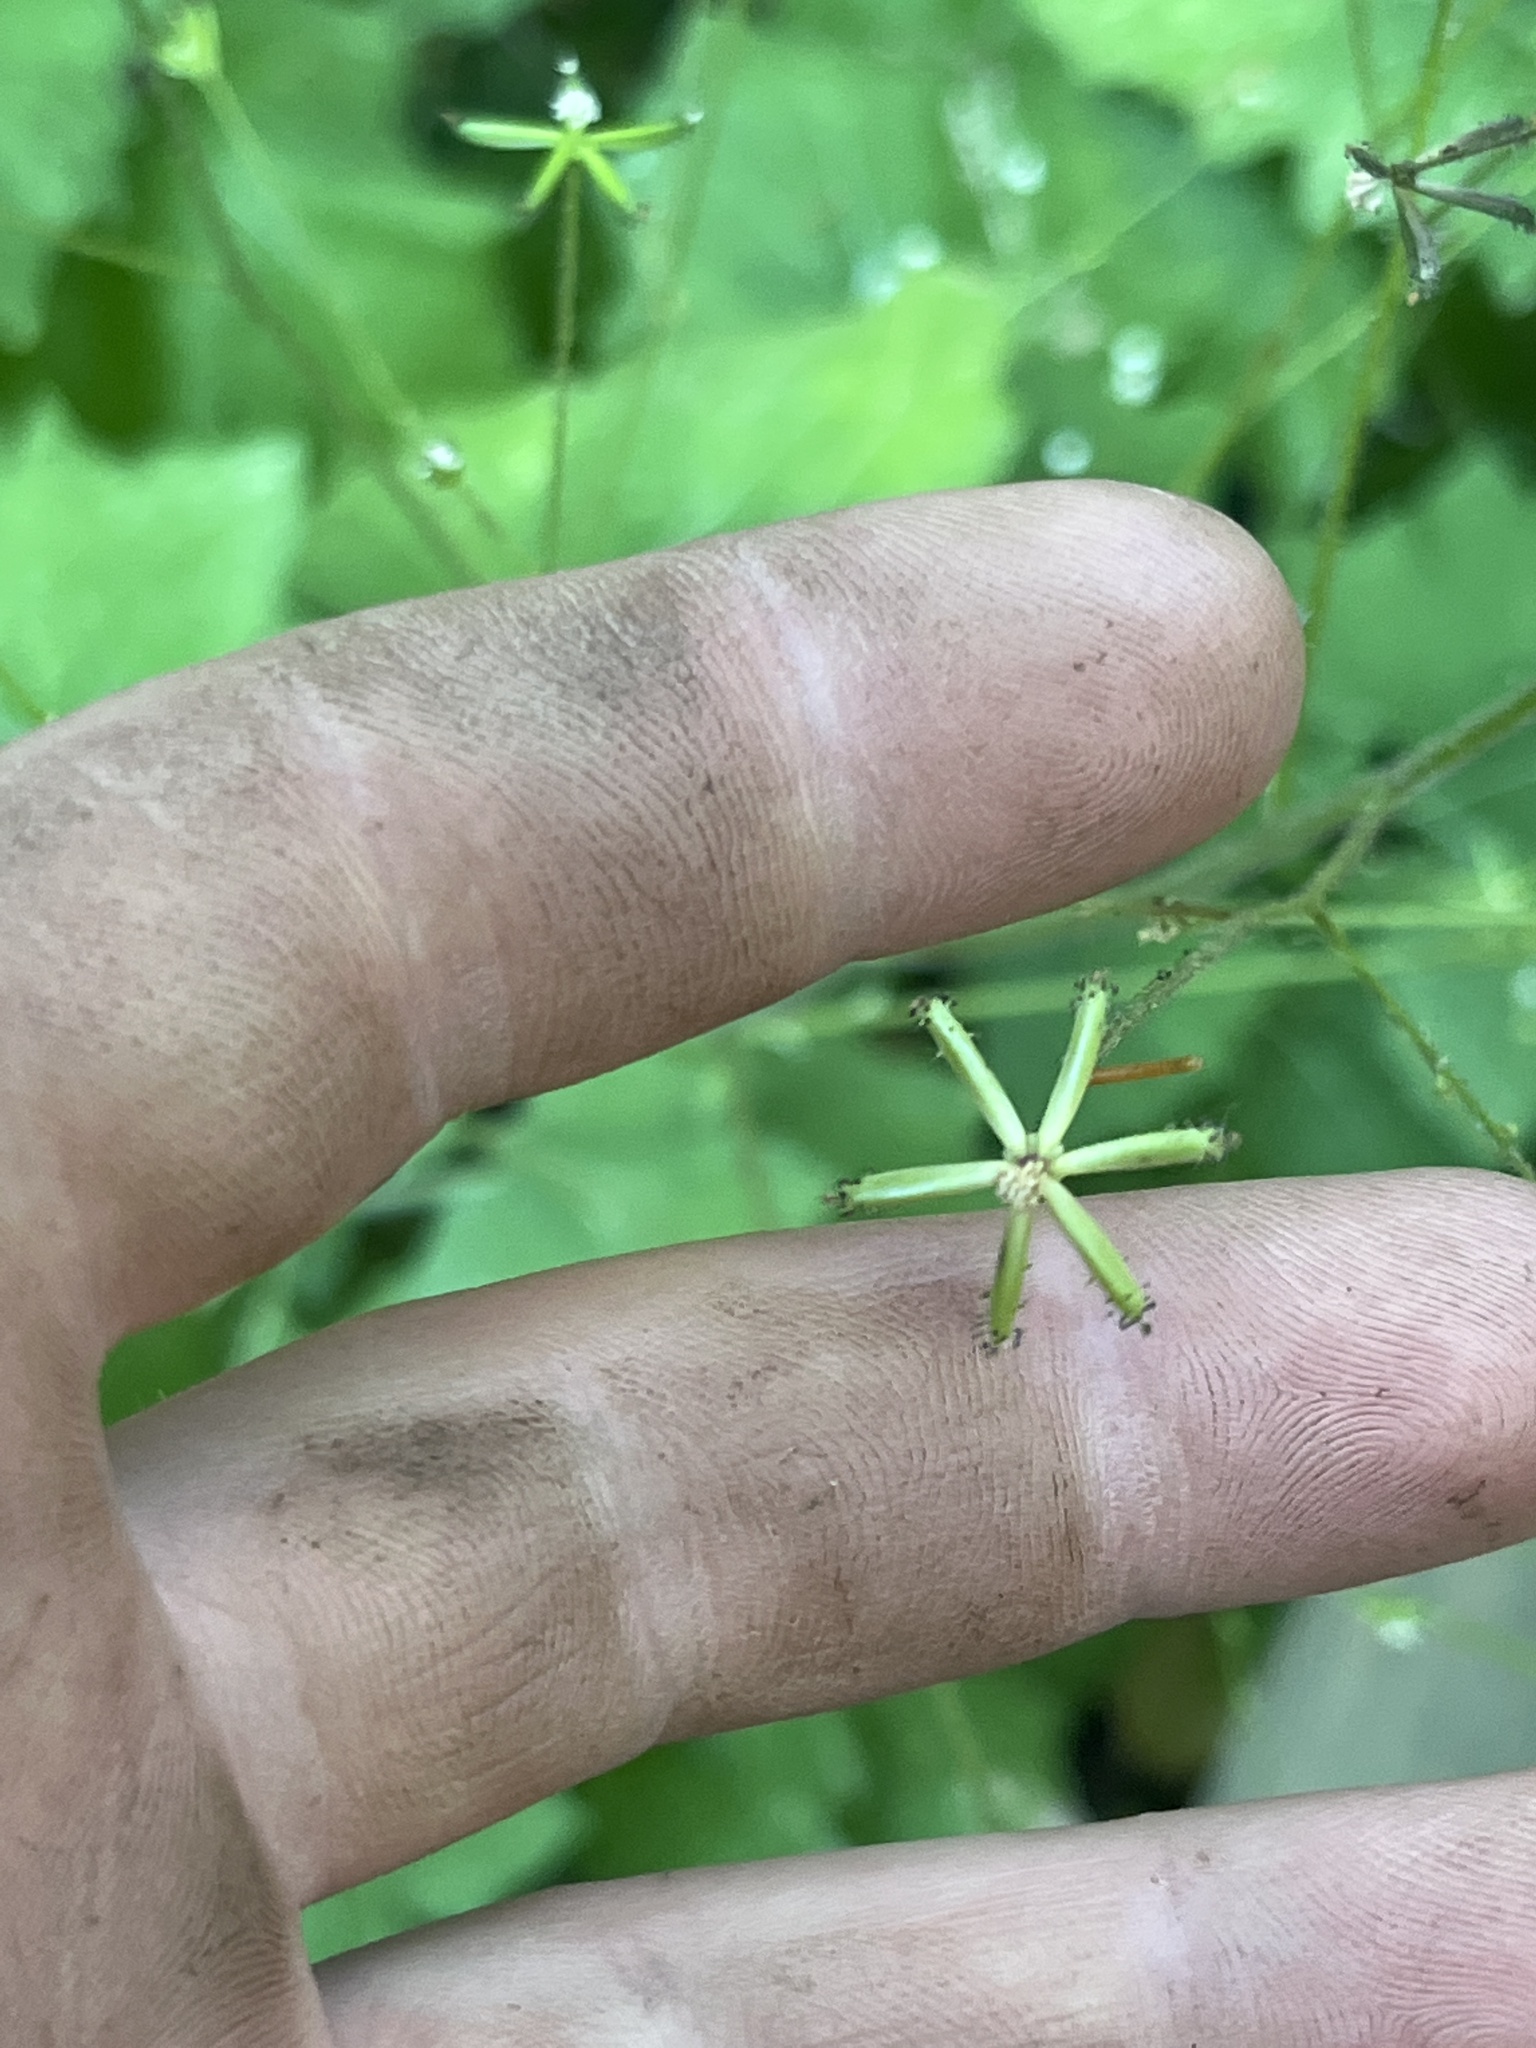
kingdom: Plantae
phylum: Tracheophyta
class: Magnoliopsida
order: Asterales
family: Asteraceae
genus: Adenocaulon
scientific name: Adenocaulon bicolor
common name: Trailplant
